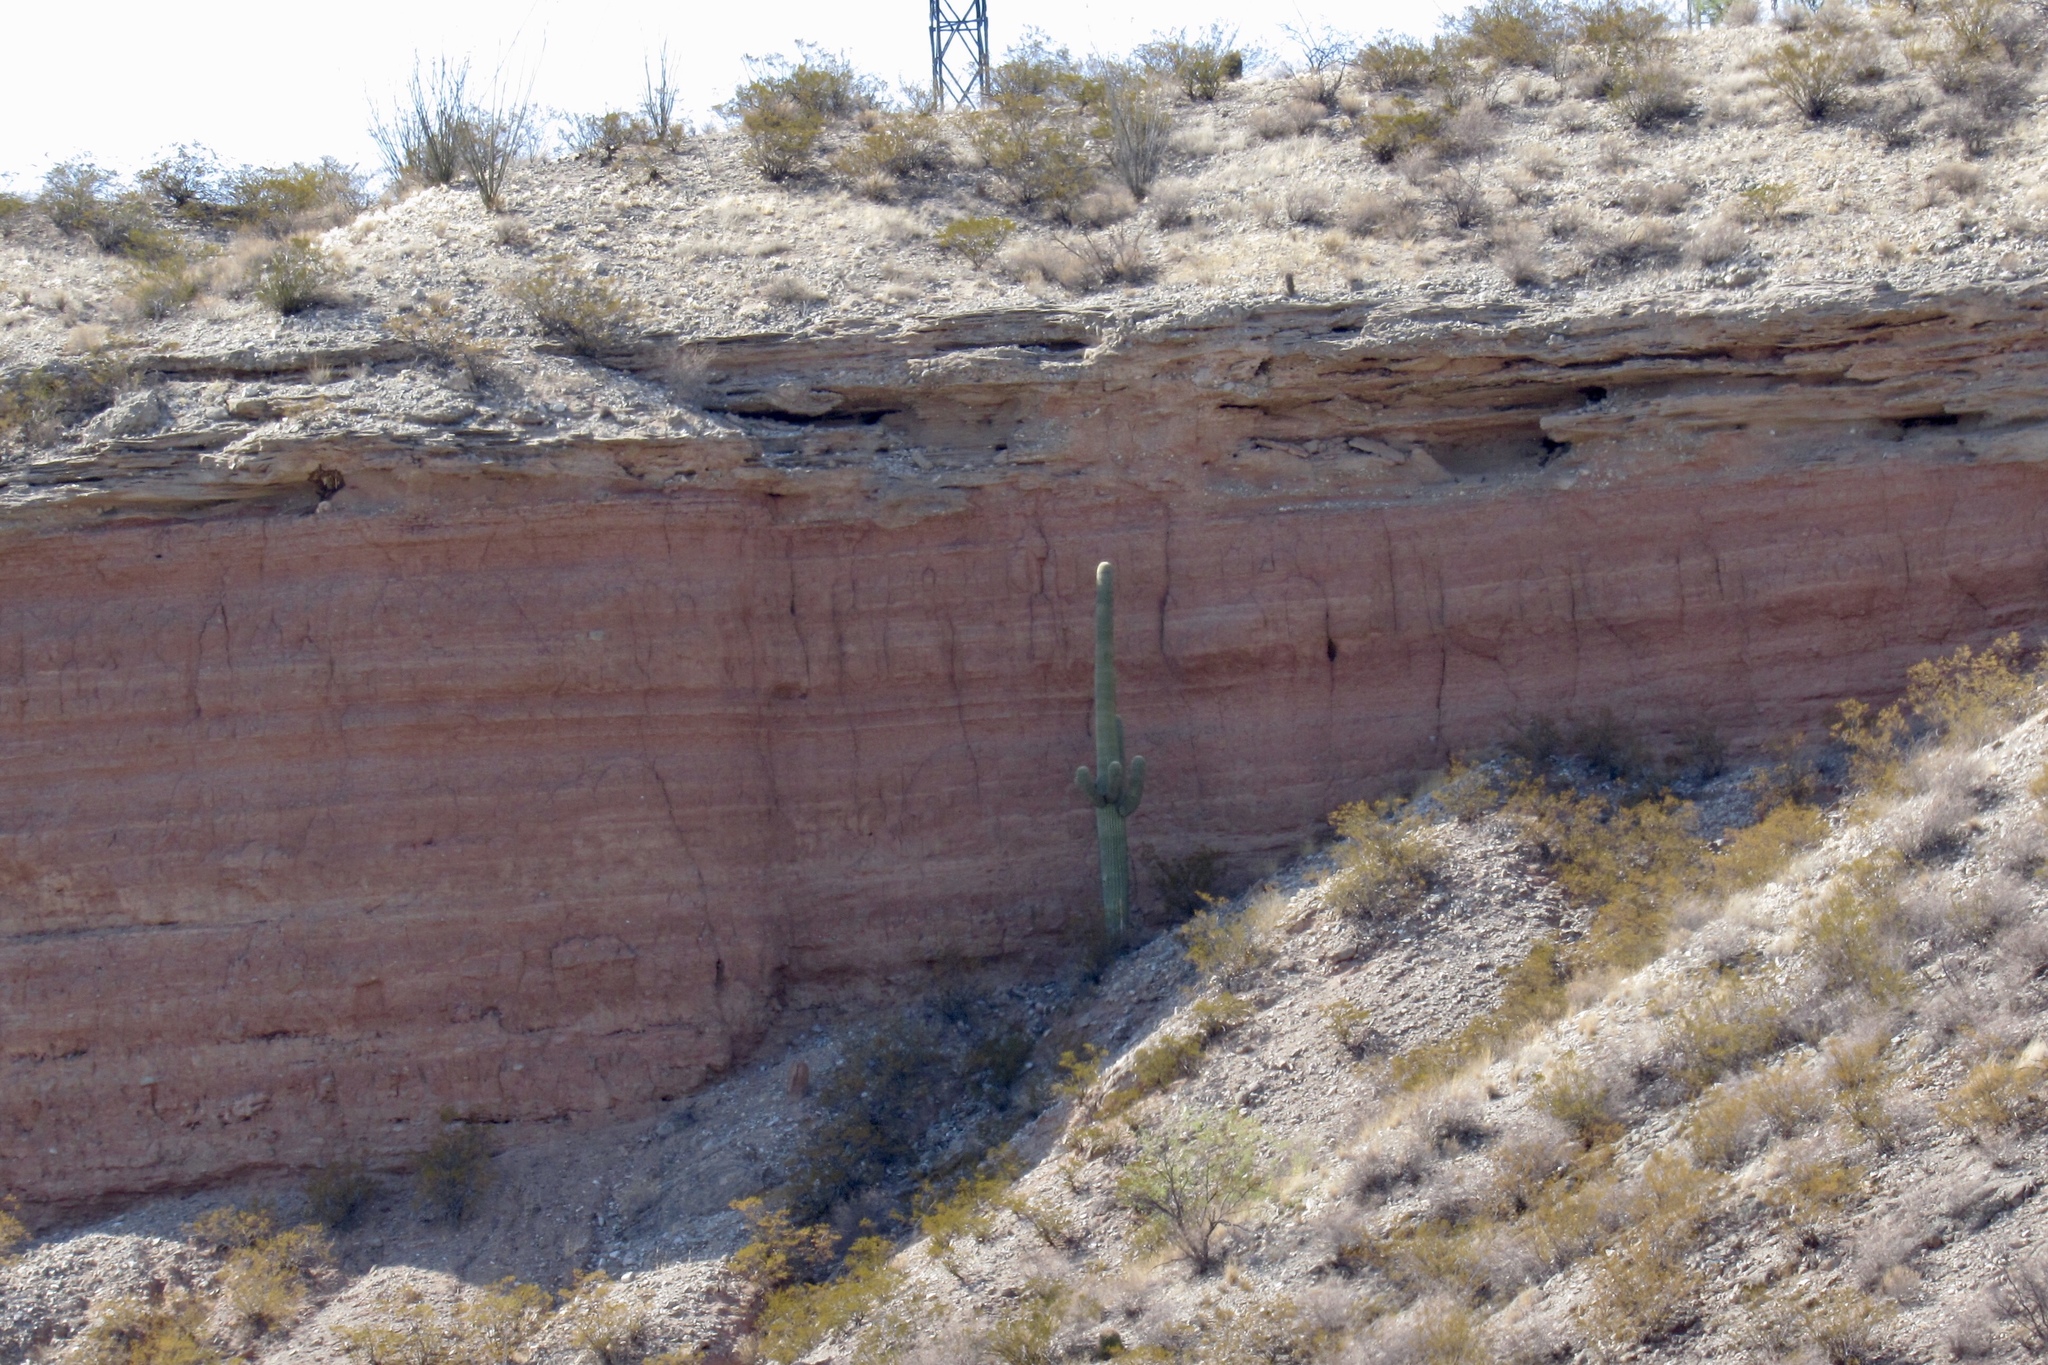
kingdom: Plantae
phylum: Tracheophyta
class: Magnoliopsida
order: Caryophyllales
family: Cactaceae
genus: Carnegiea
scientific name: Carnegiea gigantea
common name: Saguaro
